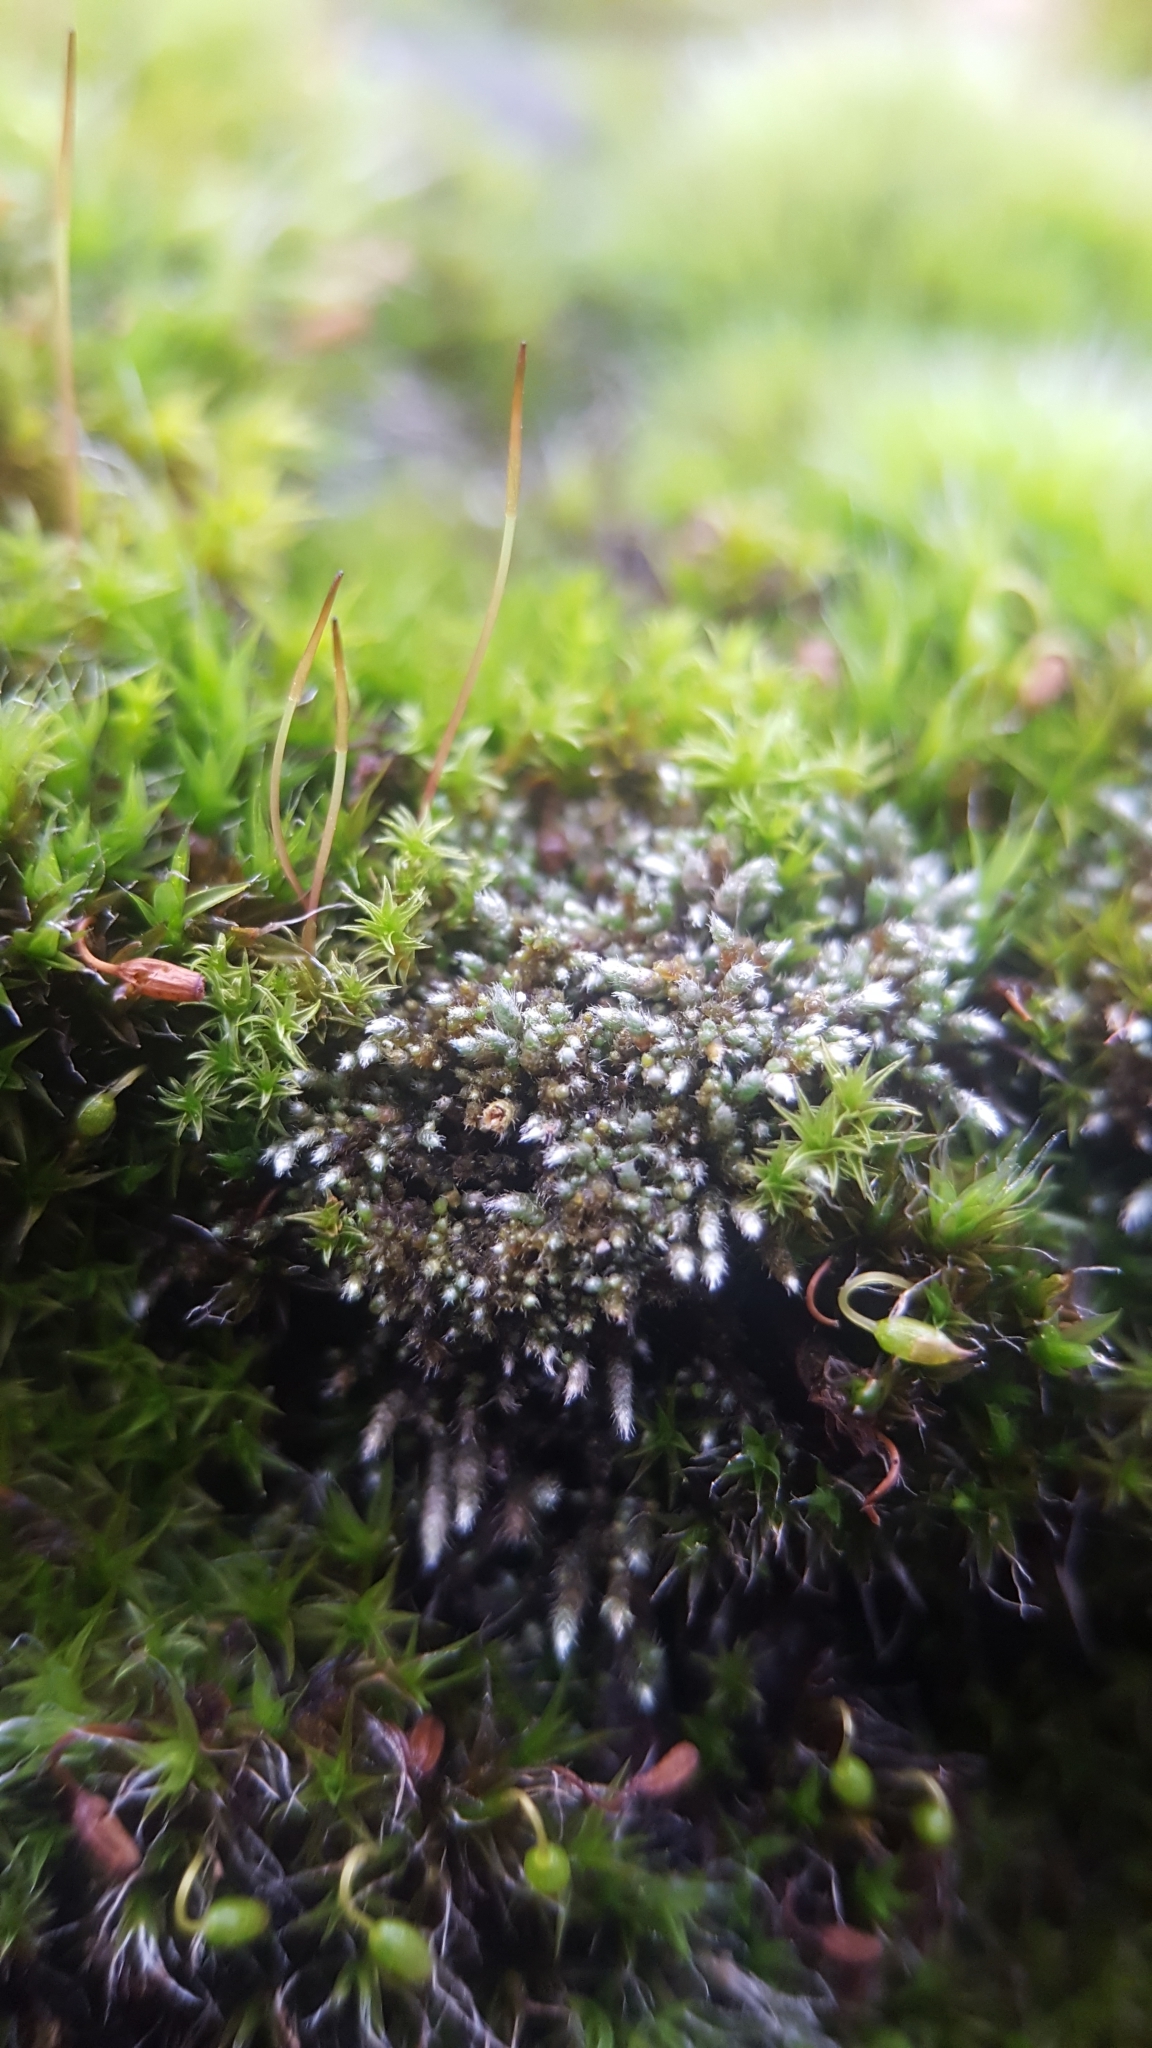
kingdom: Plantae
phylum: Bryophyta
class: Bryopsida
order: Bryales
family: Bryaceae
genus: Bryum
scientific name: Bryum argenteum
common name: Silver-moss
